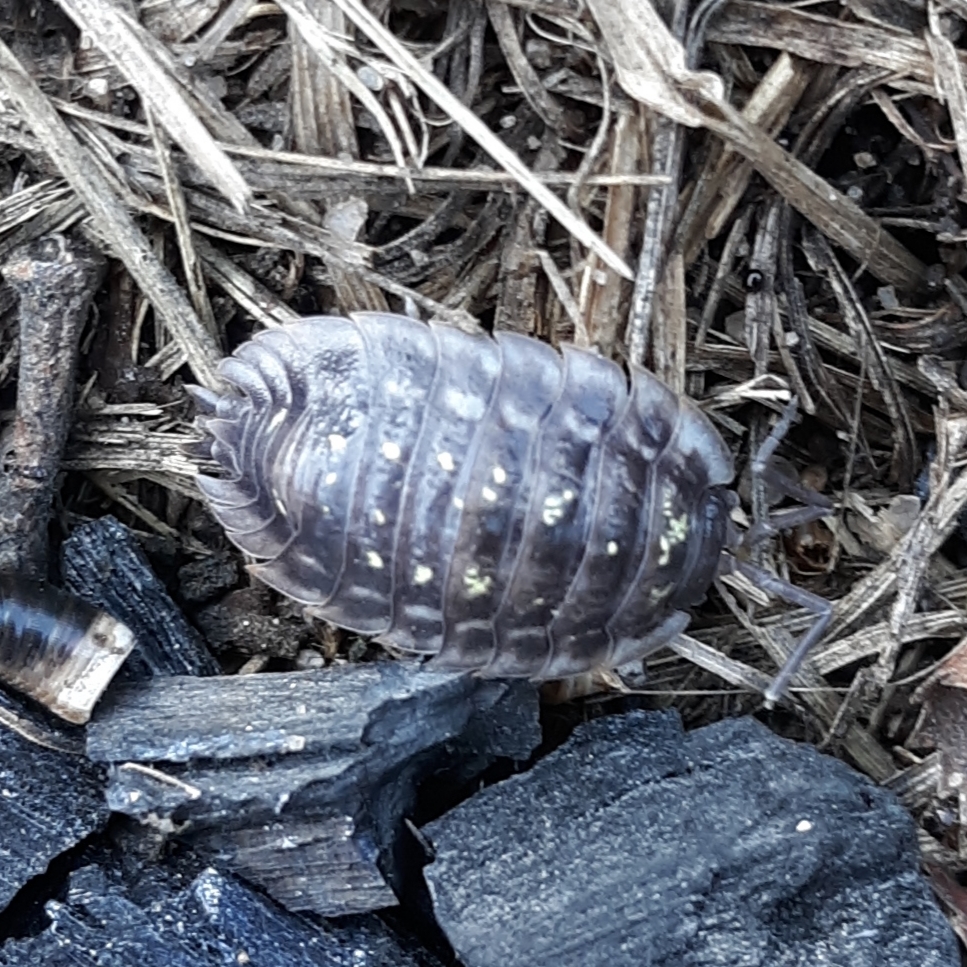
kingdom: Animalia
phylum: Arthropoda
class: Malacostraca
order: Isopoda
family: Oniscidae
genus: Oniscus
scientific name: Oniscus asellus
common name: Common shiny woodlouse
